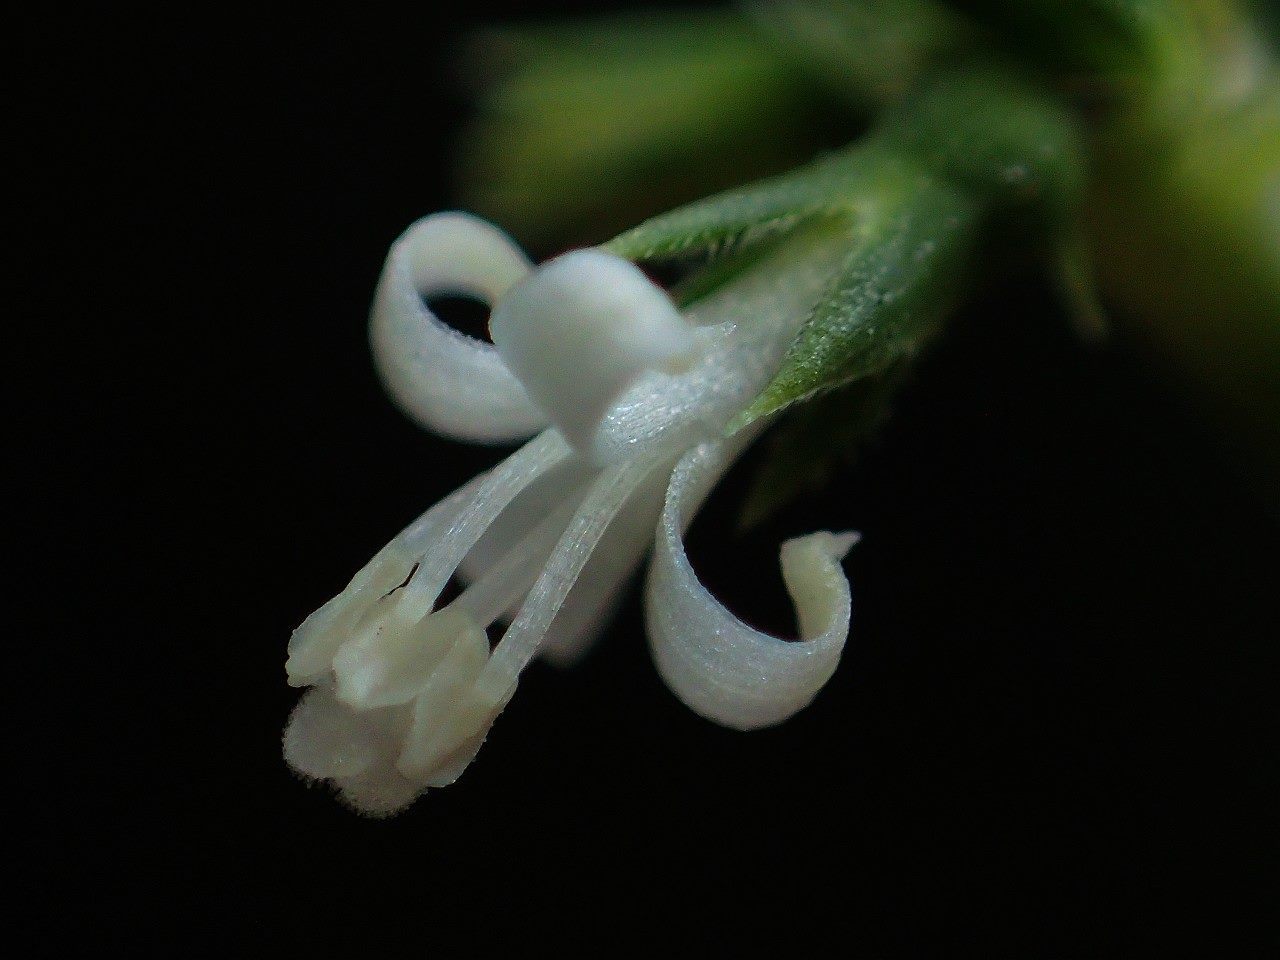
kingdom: Plantae
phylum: Tracheophyta
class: Magnoliopsida
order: Gentianales
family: Rubiaceae
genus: Scleromitrion
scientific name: Scleromitrion angustifolium
